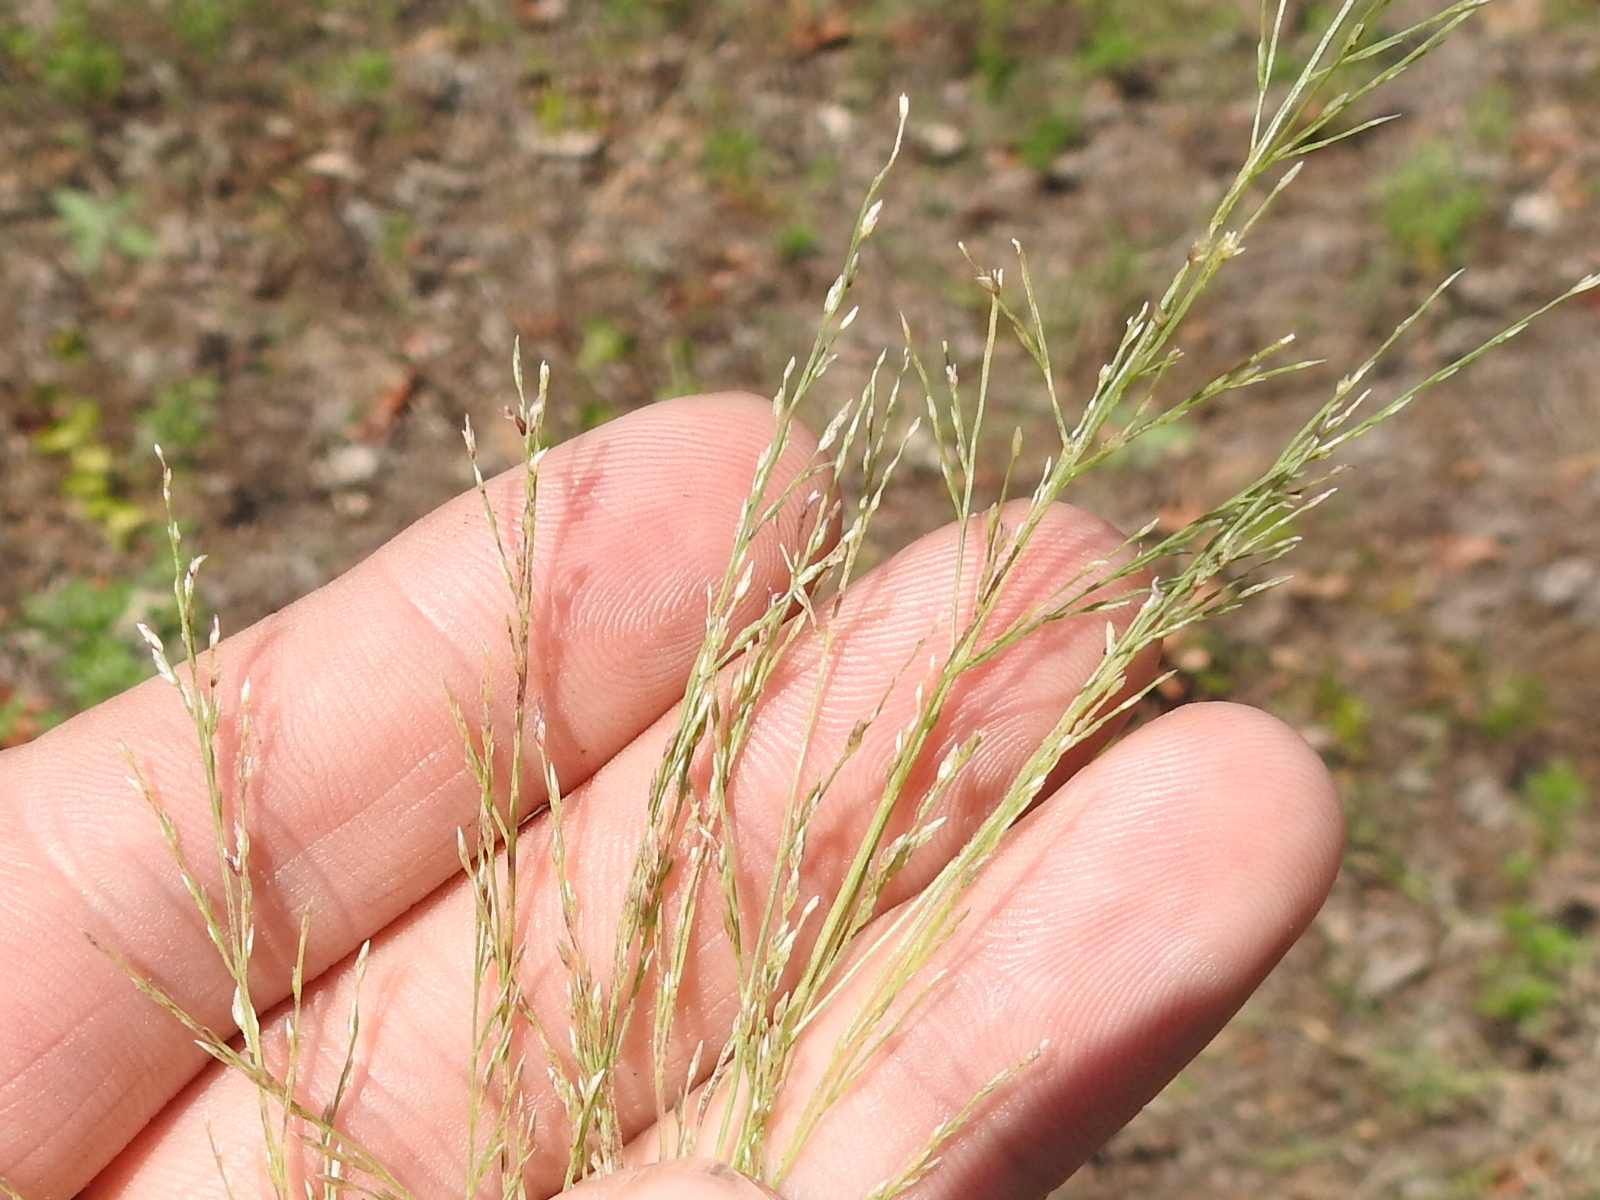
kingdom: Plantae
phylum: Tracheophyta
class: Liliopsida
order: Poales
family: Poaceae
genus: Eragrostis
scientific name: Eragrostis curtipedicellata
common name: Gummy love grass
